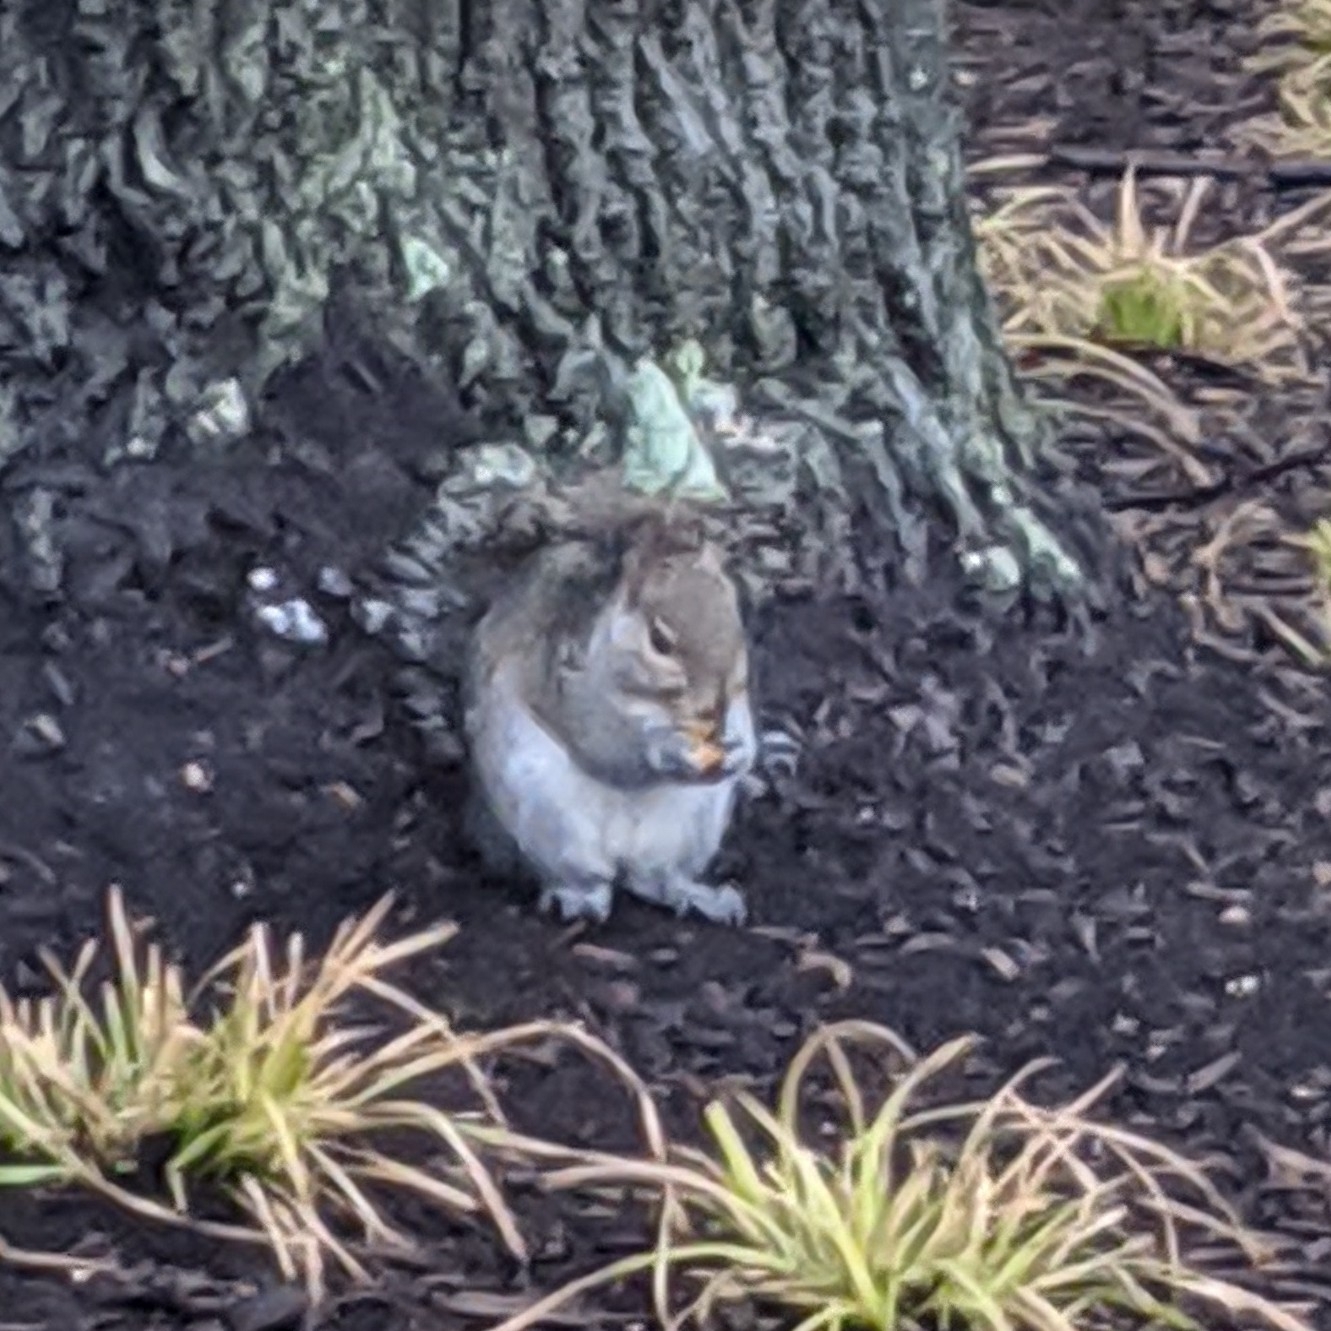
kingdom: Animalia
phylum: Chordata
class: Mammalia
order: Rodentia
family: Sciuridae
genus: Sciurus
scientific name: Sciurus carolinensis
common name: Eastern gray squirrel
